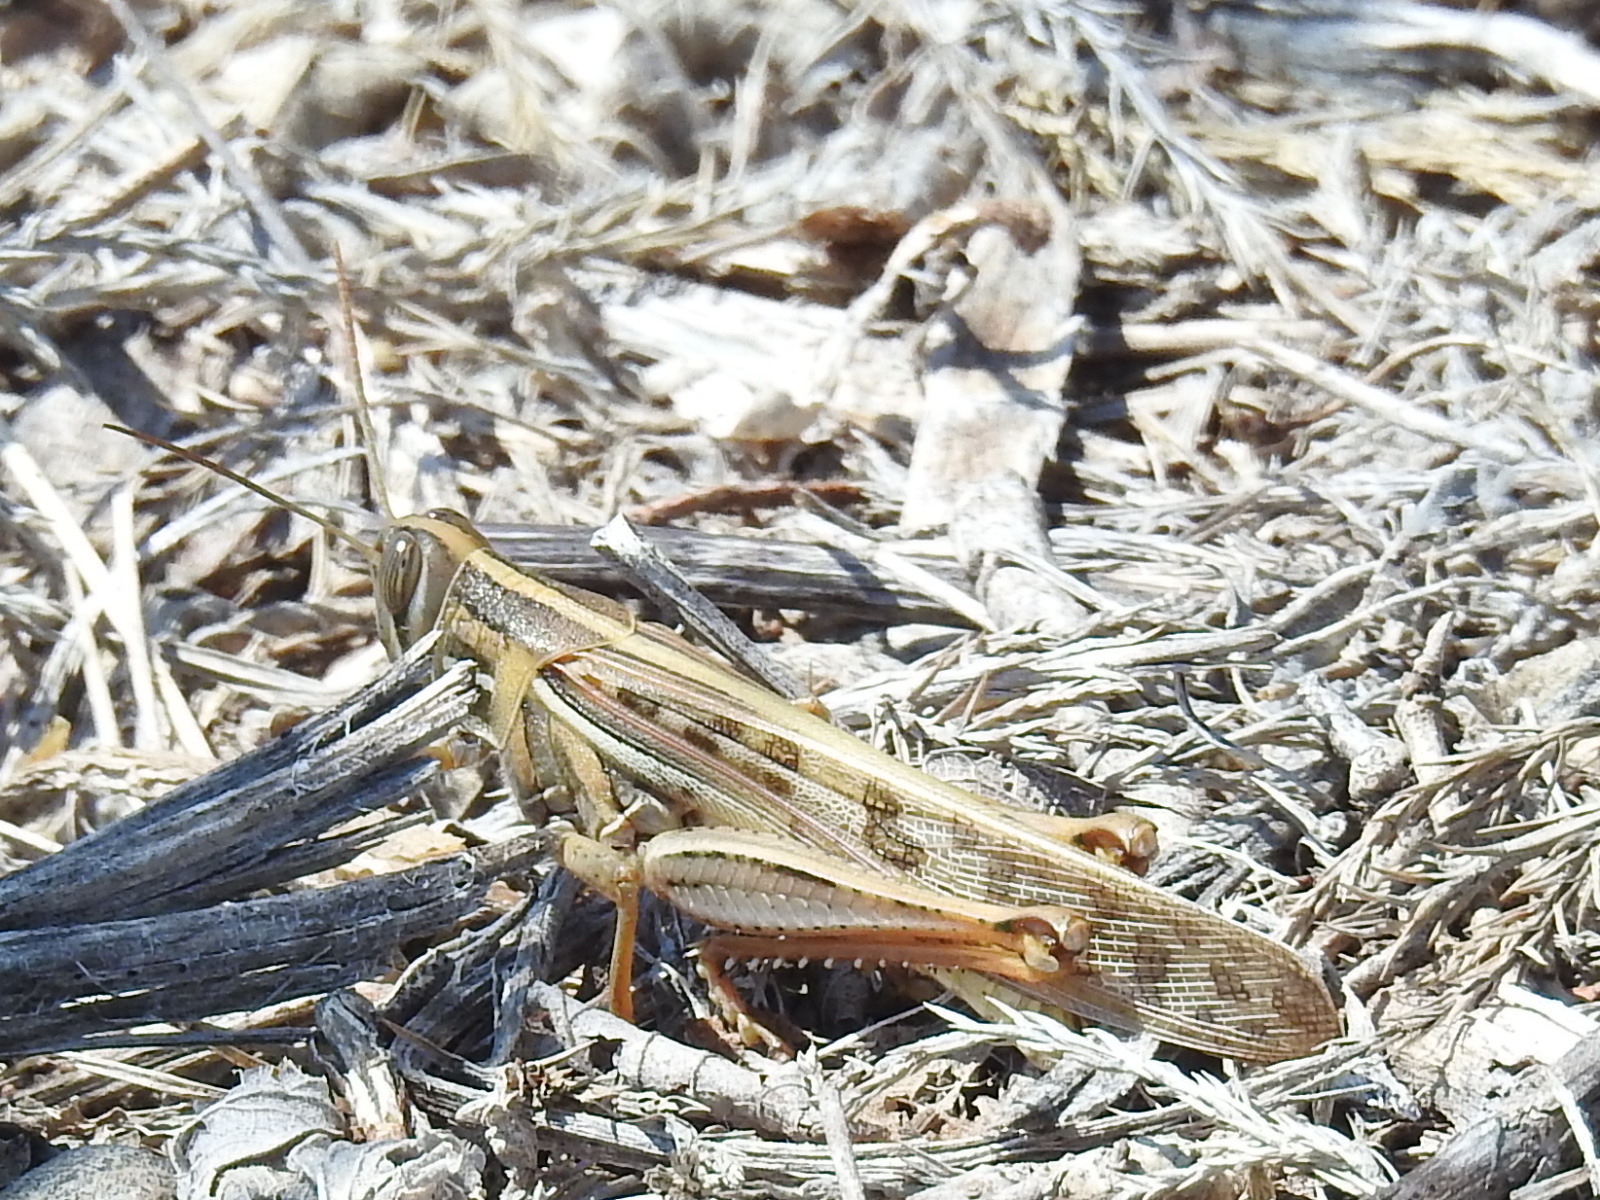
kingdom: Animalia
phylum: Arthropoda
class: Insecta
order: Orthoptera
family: Acrididae
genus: Schistocerca
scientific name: Schistocerca americana
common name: American bird locust
